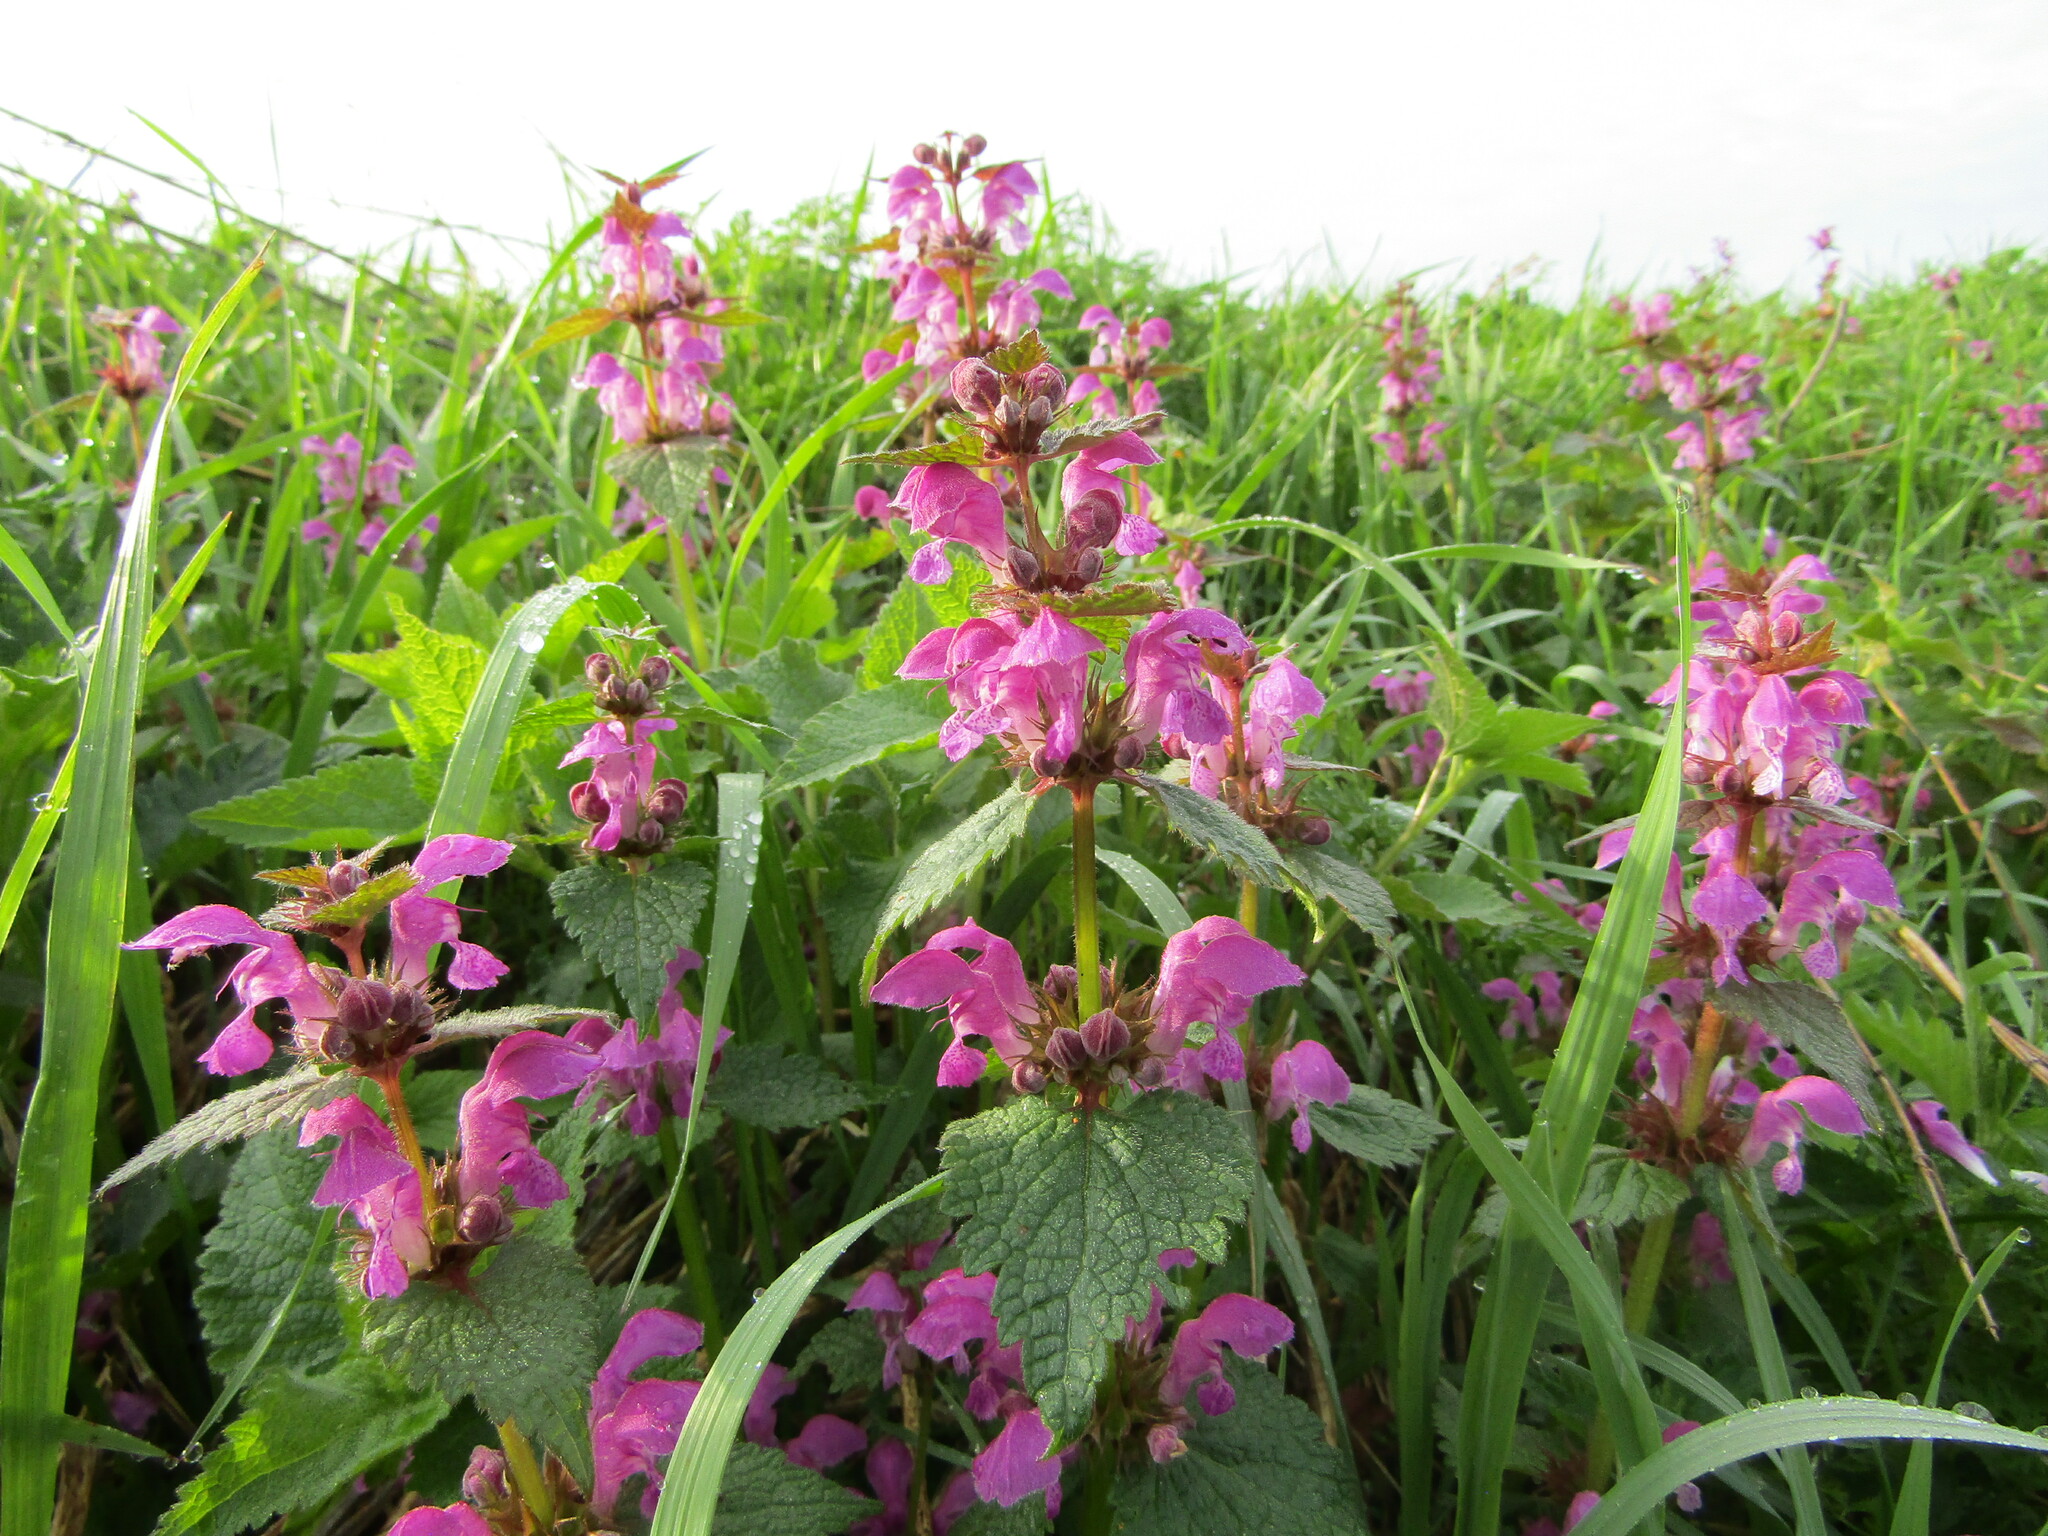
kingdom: Plantae
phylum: Tracheophyta
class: Magnoliopsida
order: Lamiales
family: Lamiaceae
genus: Lamium
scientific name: Lamium maculatum
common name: Spotted dead-nettle
